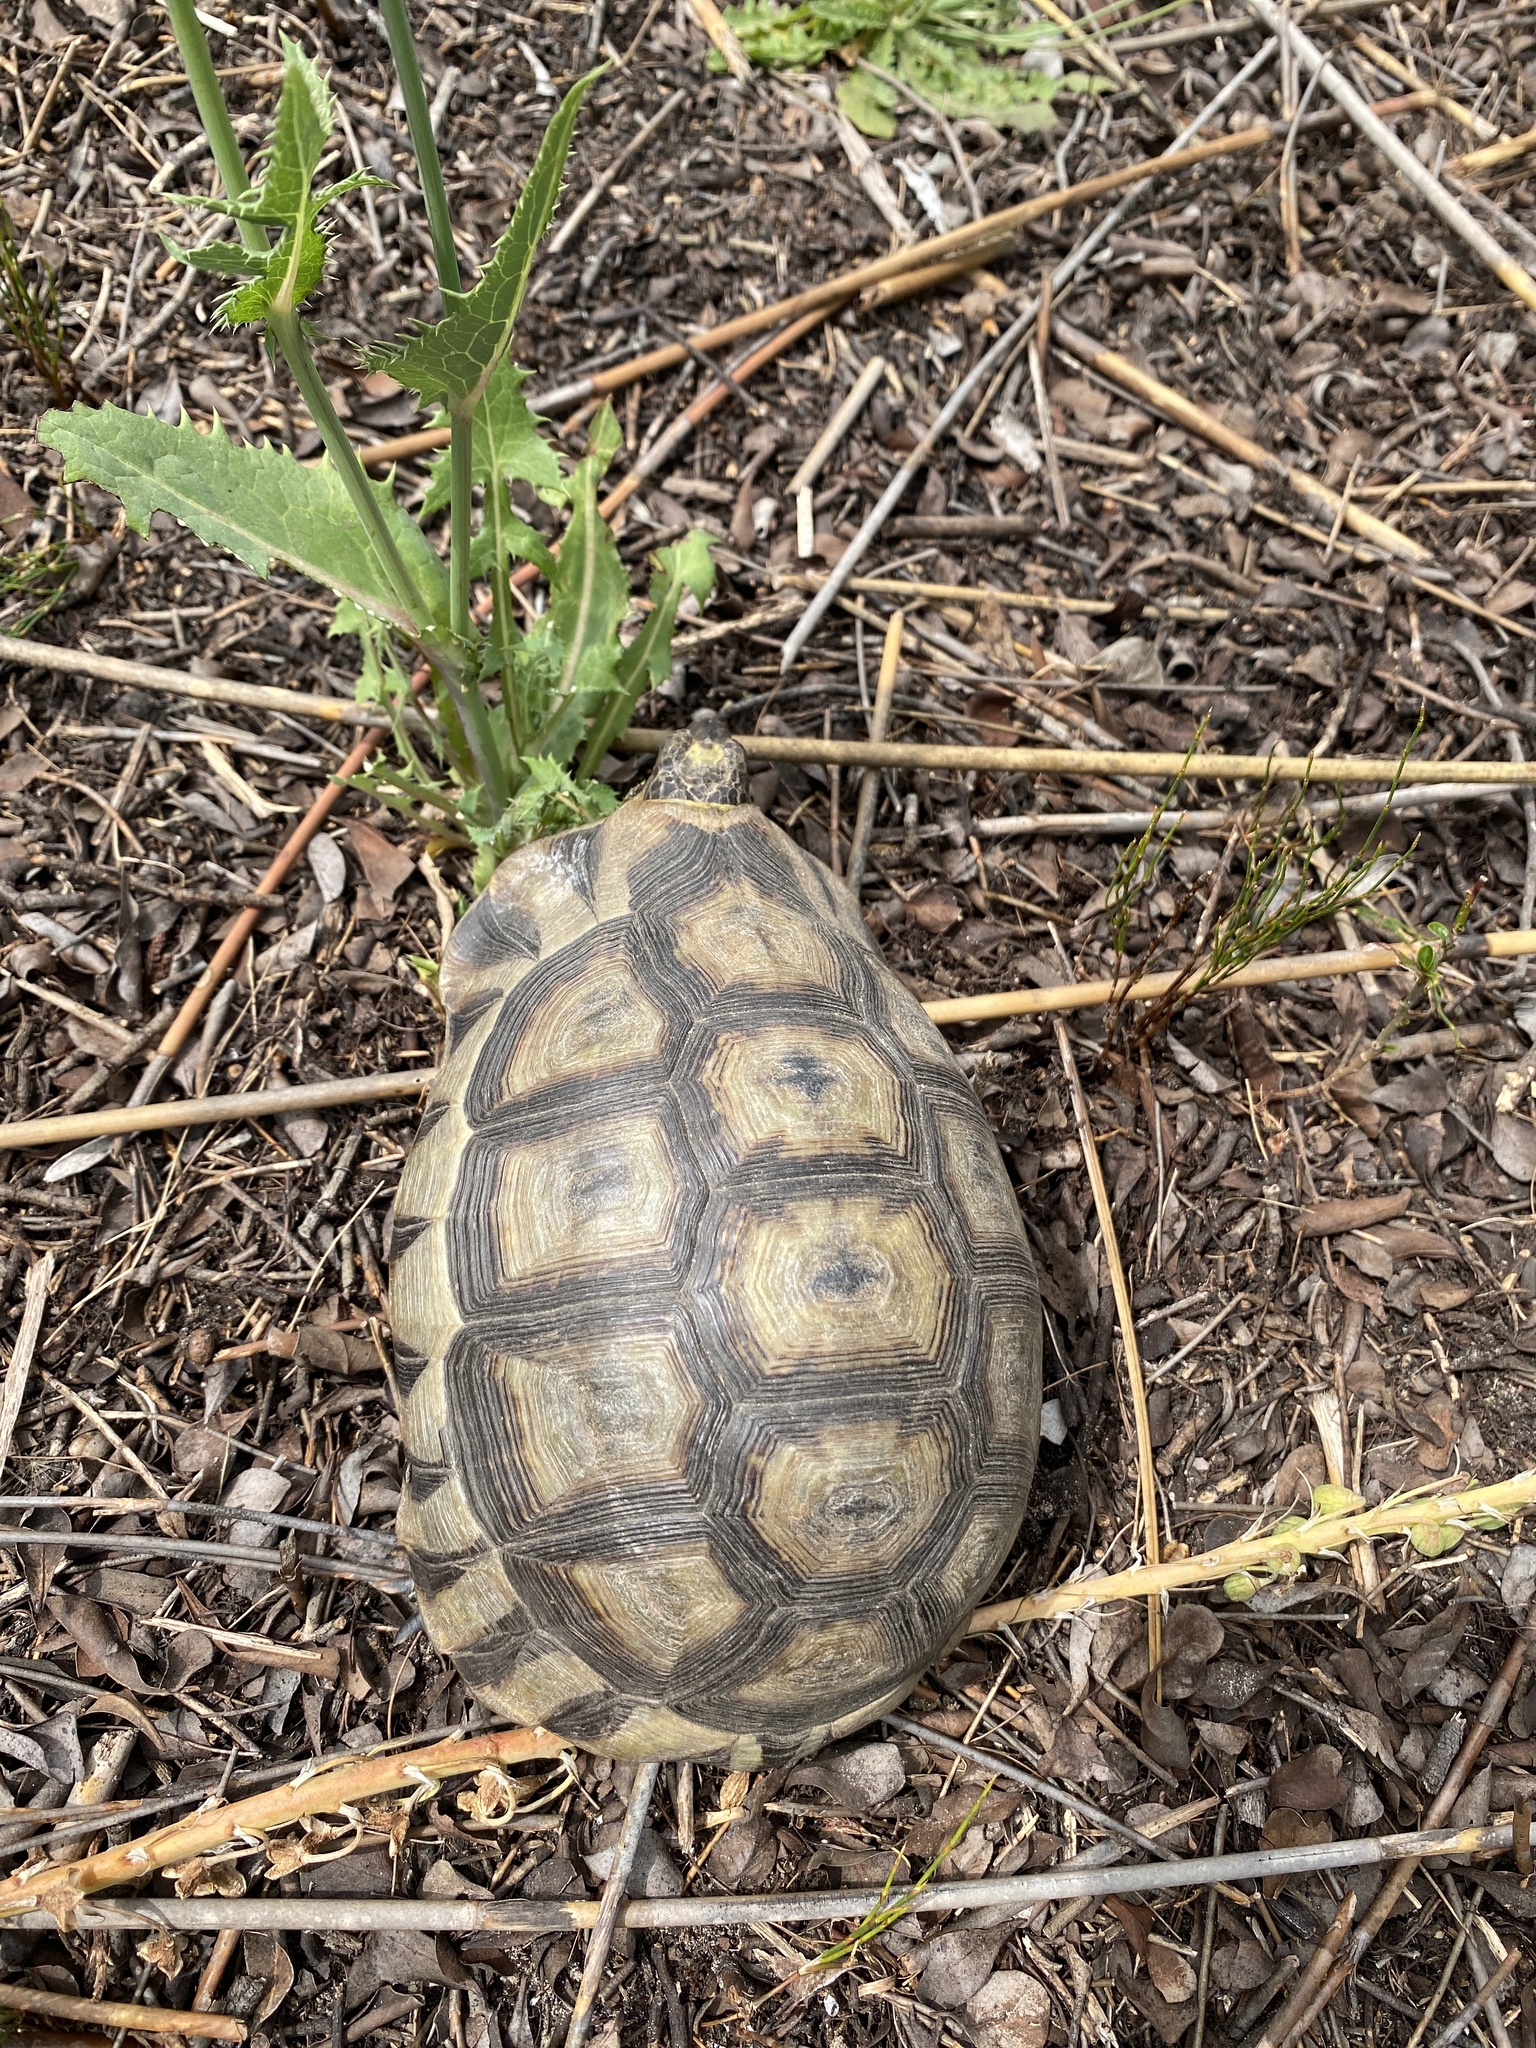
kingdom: Animalia
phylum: Chordata
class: Testudines
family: Testudinidae
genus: Chersina
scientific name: Chersina angulata
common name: South african bowsprit tortoise
